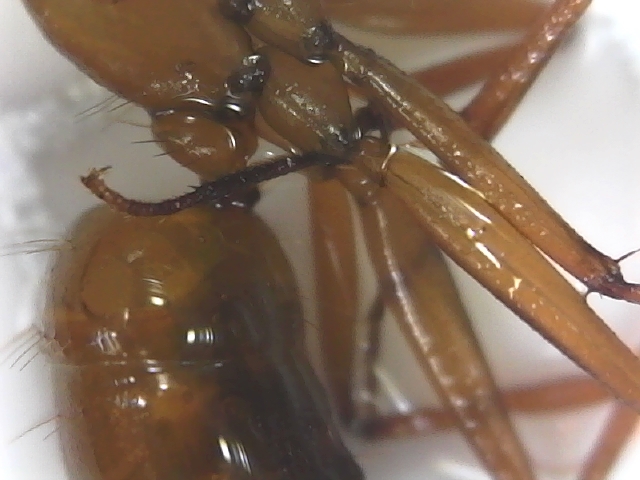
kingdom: Animalia
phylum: Arthropoda
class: Insecta
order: Hymenoptera
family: Formicidae
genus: Camponotus
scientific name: Camponotus castaneus
